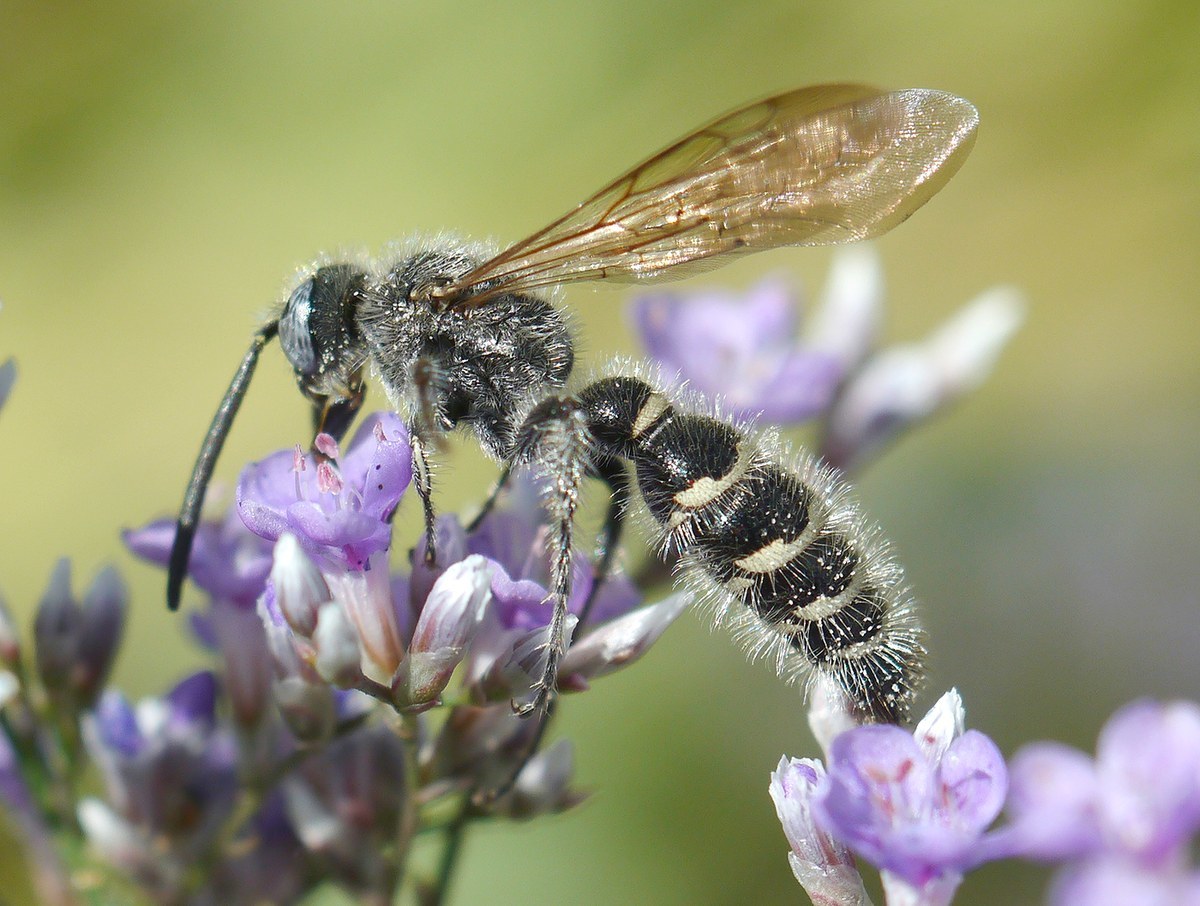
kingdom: Animalia
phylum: Arthropoda
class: Insecta
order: Hymenoptera
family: Scoliidae
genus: Colpa
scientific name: Colpa quinquecincta
